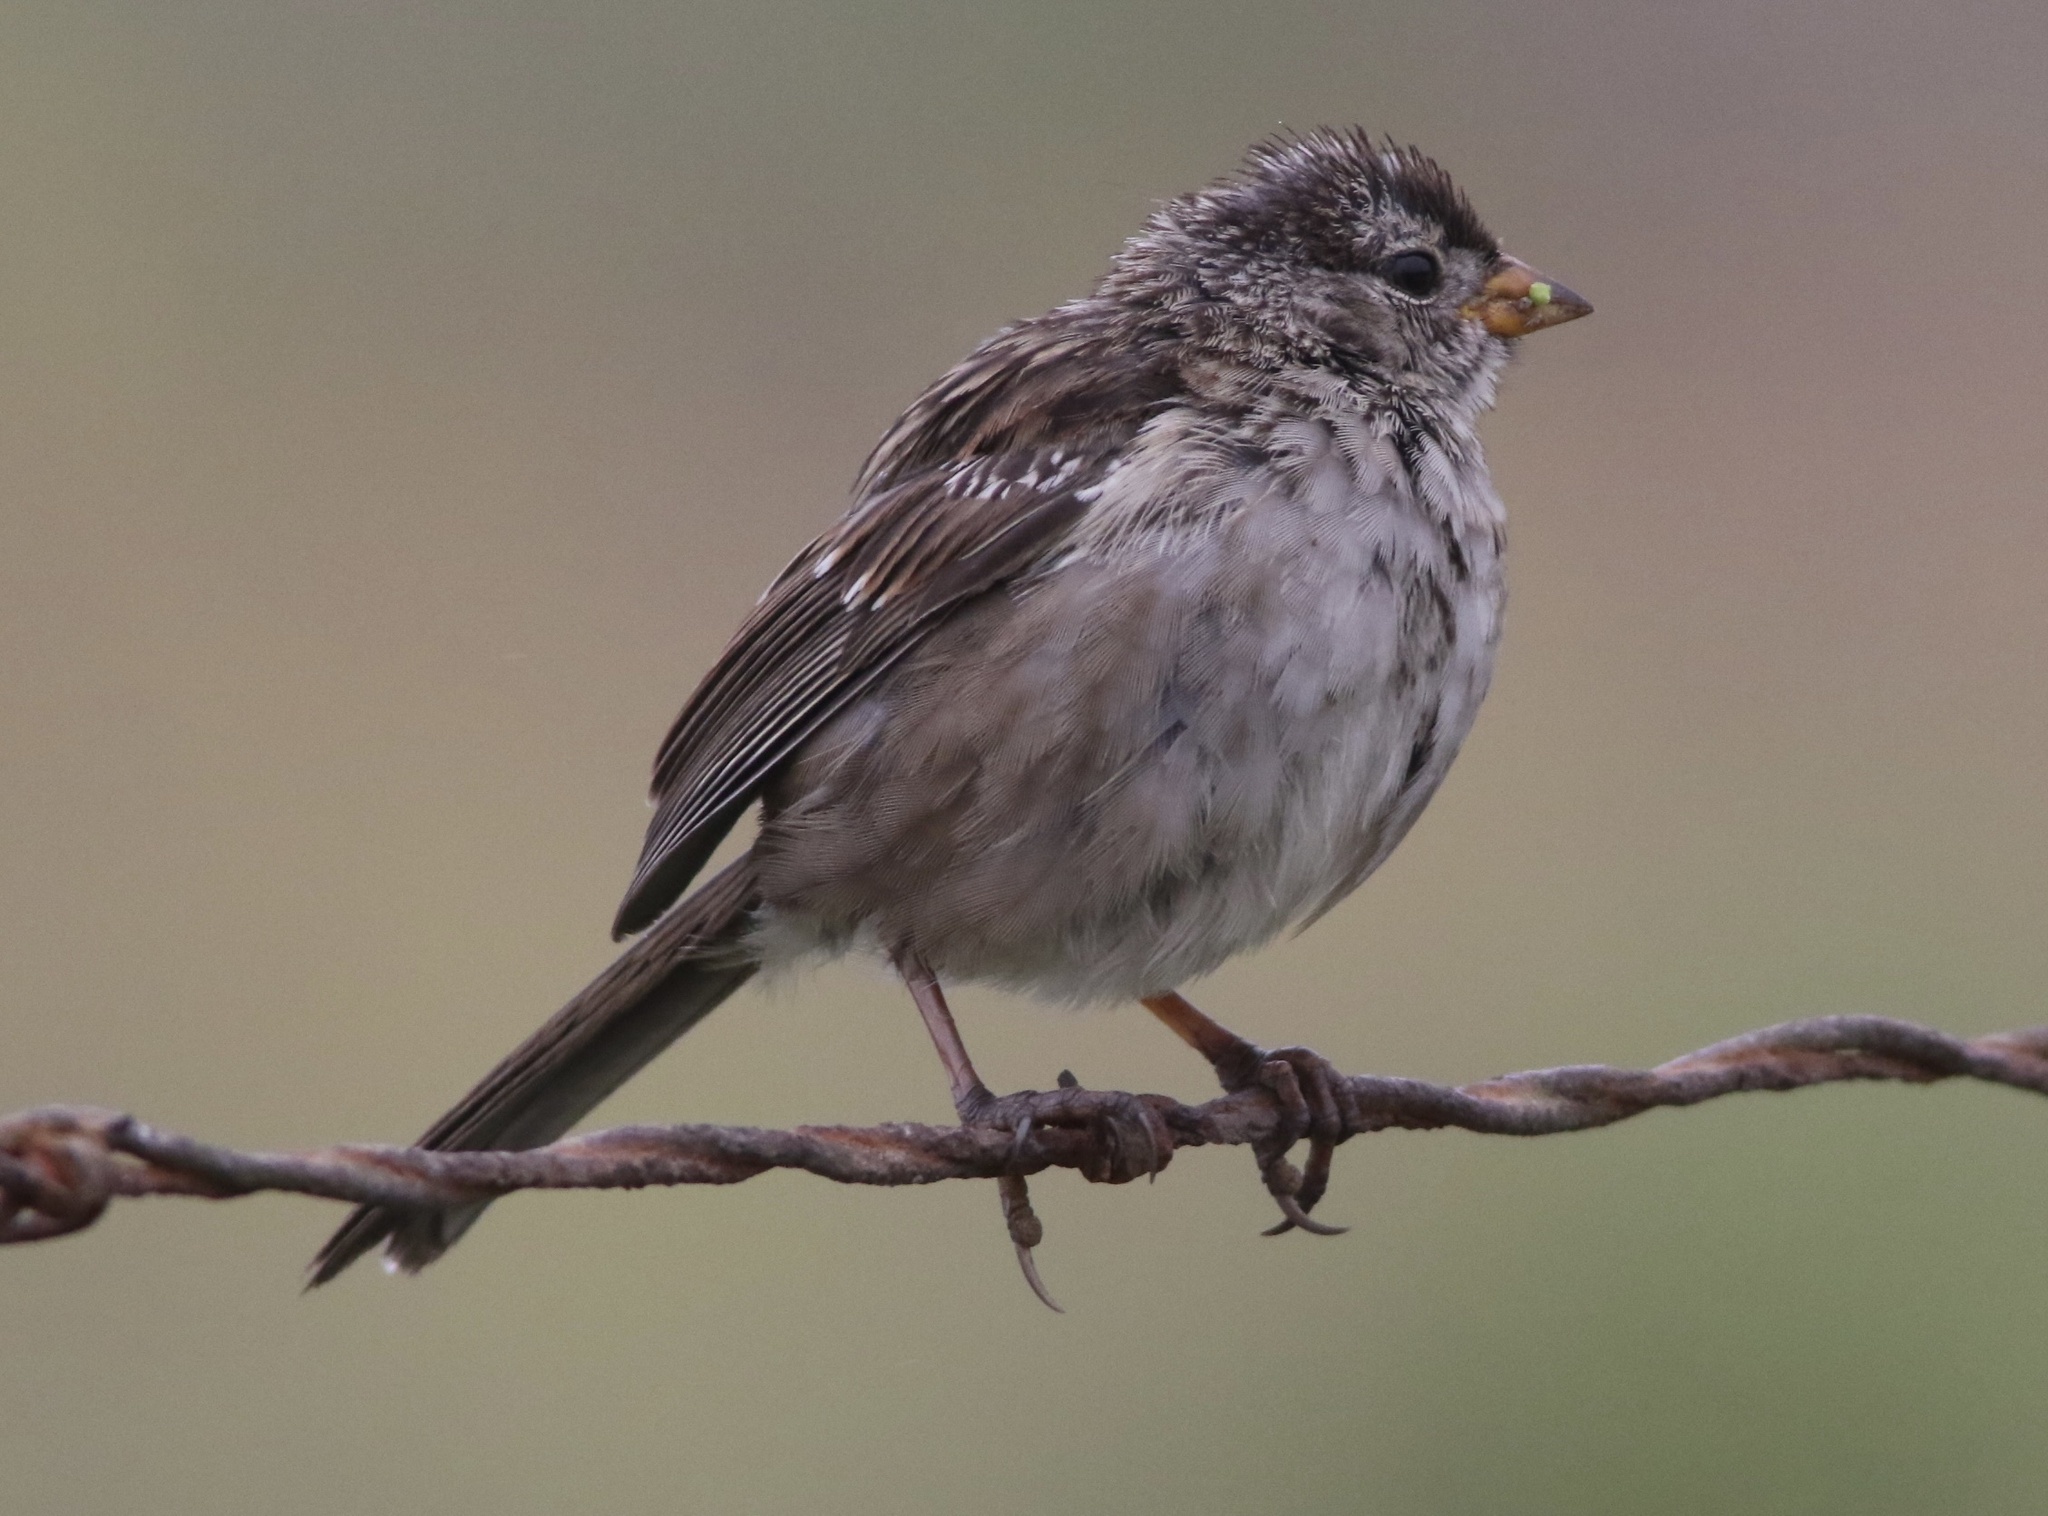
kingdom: Animalia
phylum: Chordata
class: Aves
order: Passeriformes
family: Passerellidae
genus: Zonotrichia
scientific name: Zonotrichia leucophrys
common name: White-crowned sparrow
